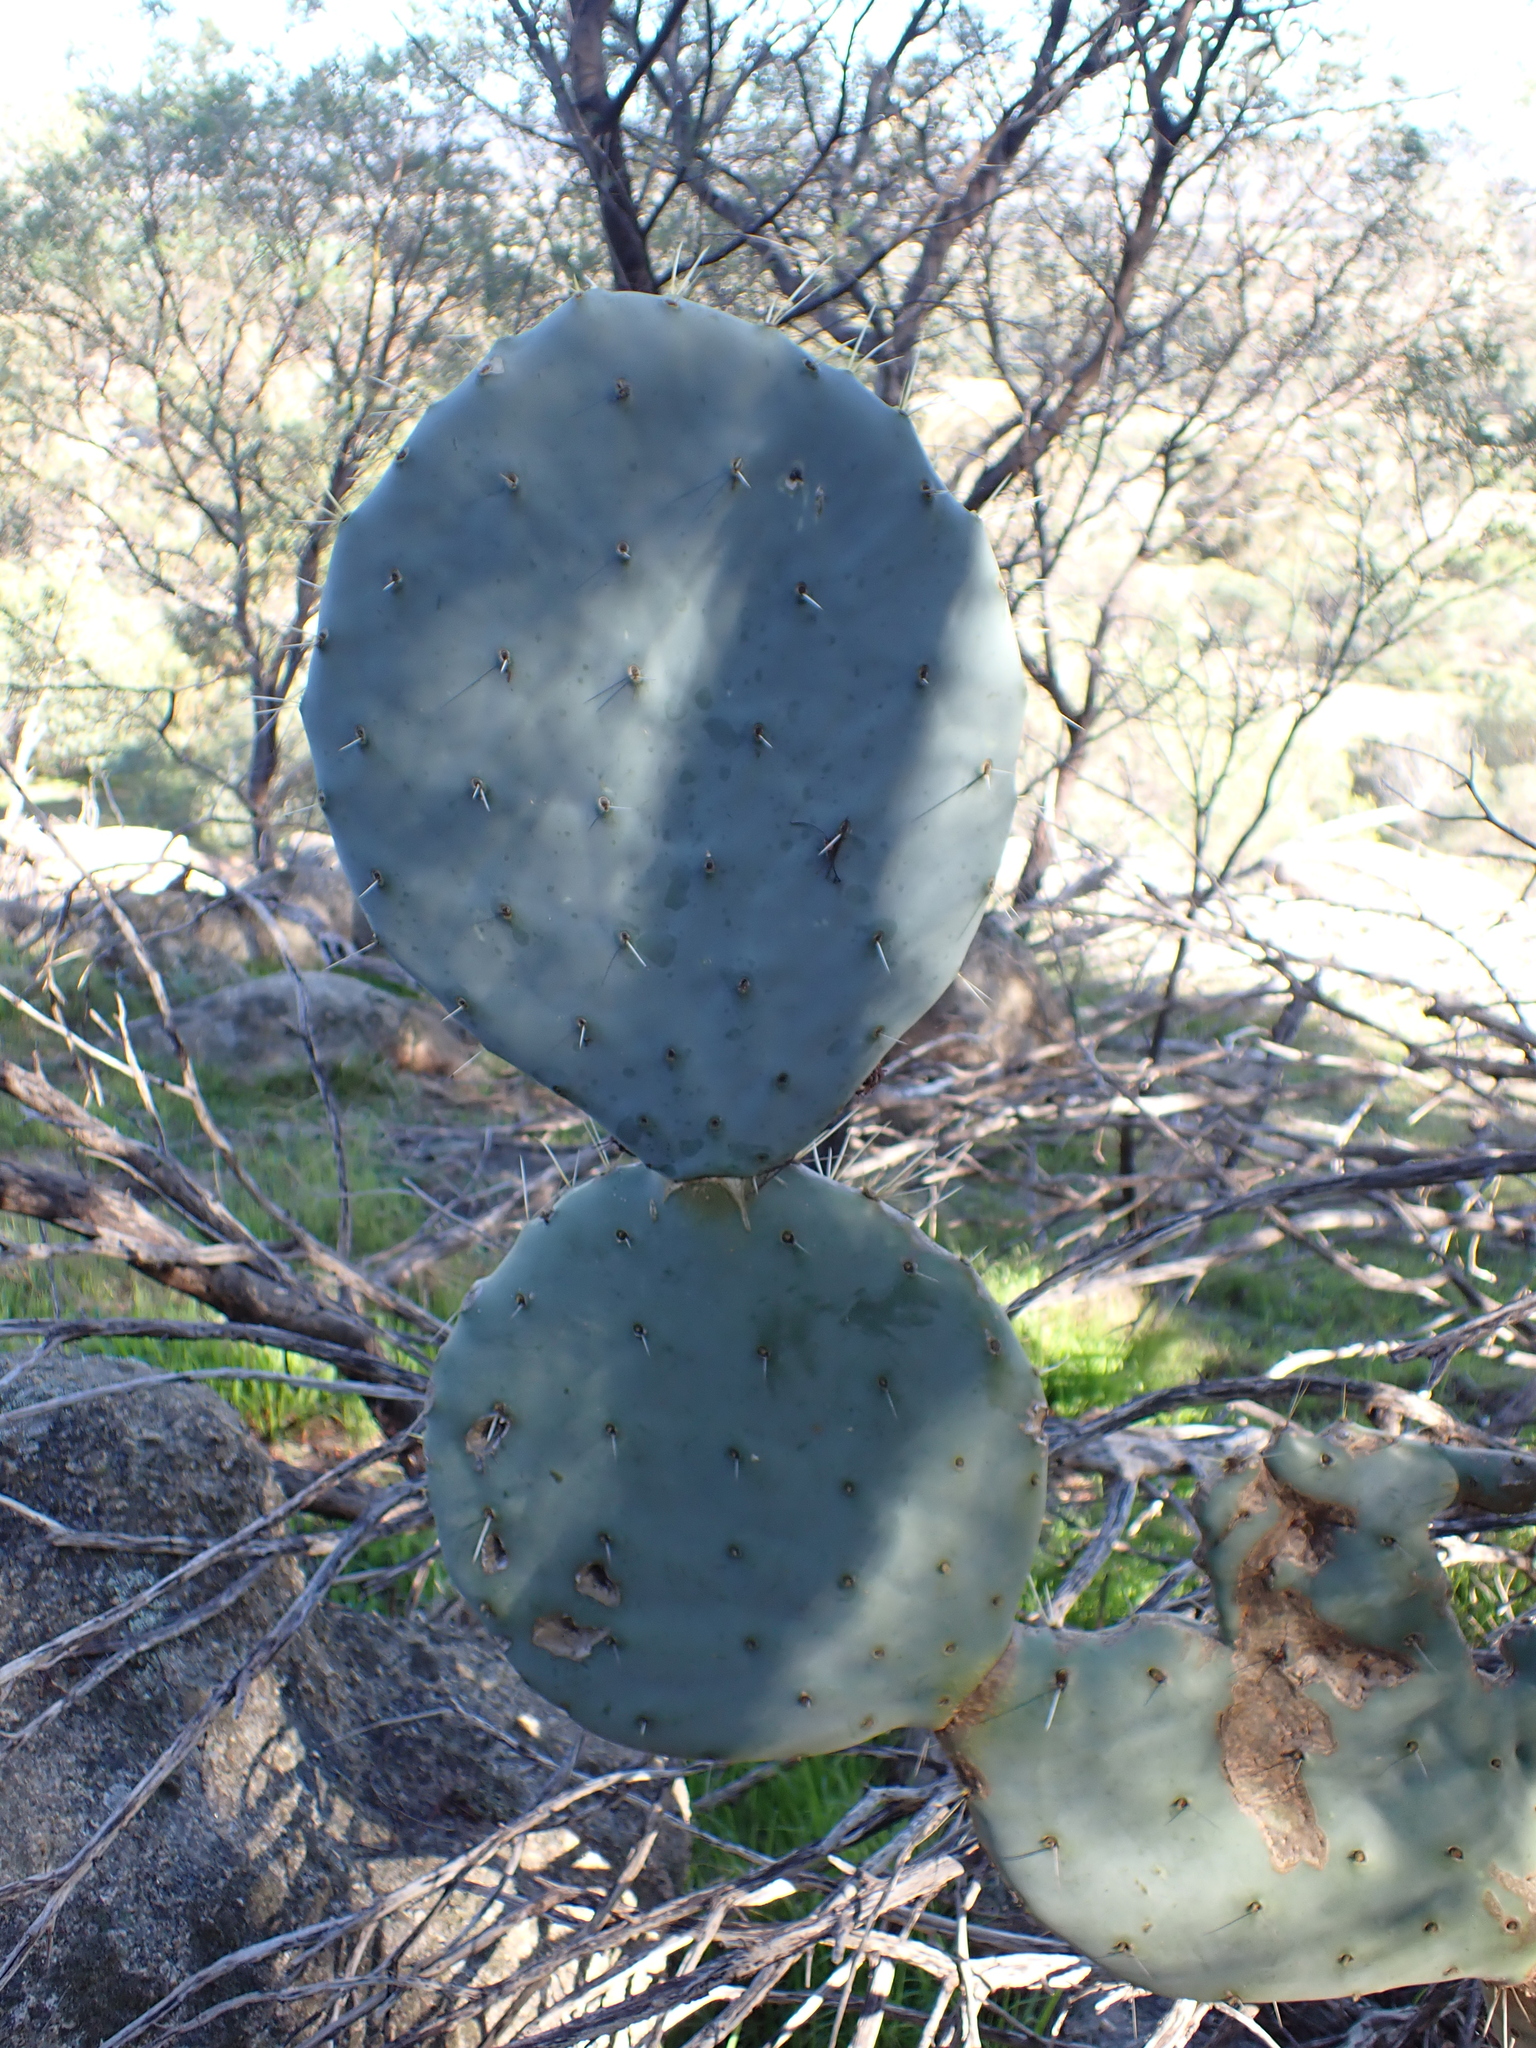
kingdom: Plantae
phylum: Tracheophyta
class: Magnoliopsida
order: Caryophyllales
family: Cactaceae
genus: Opuntia
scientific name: Opuntia robusta
